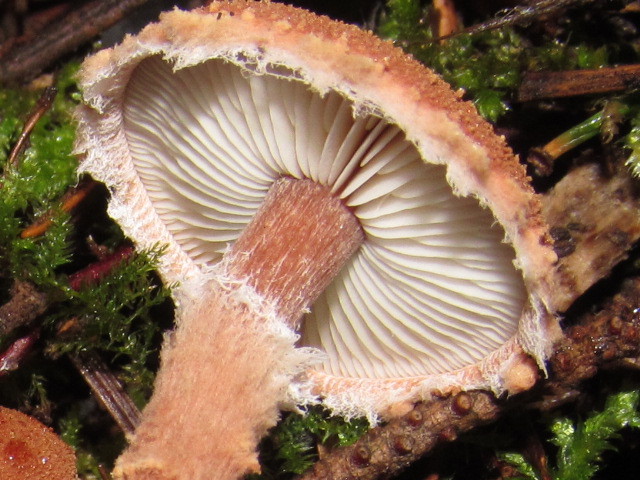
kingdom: Fungi
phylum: Basidiomycota
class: Agaricomycetes
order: Agaricales
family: Agaricaceae
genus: Cystodermella
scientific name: Cystodermella granulosa
